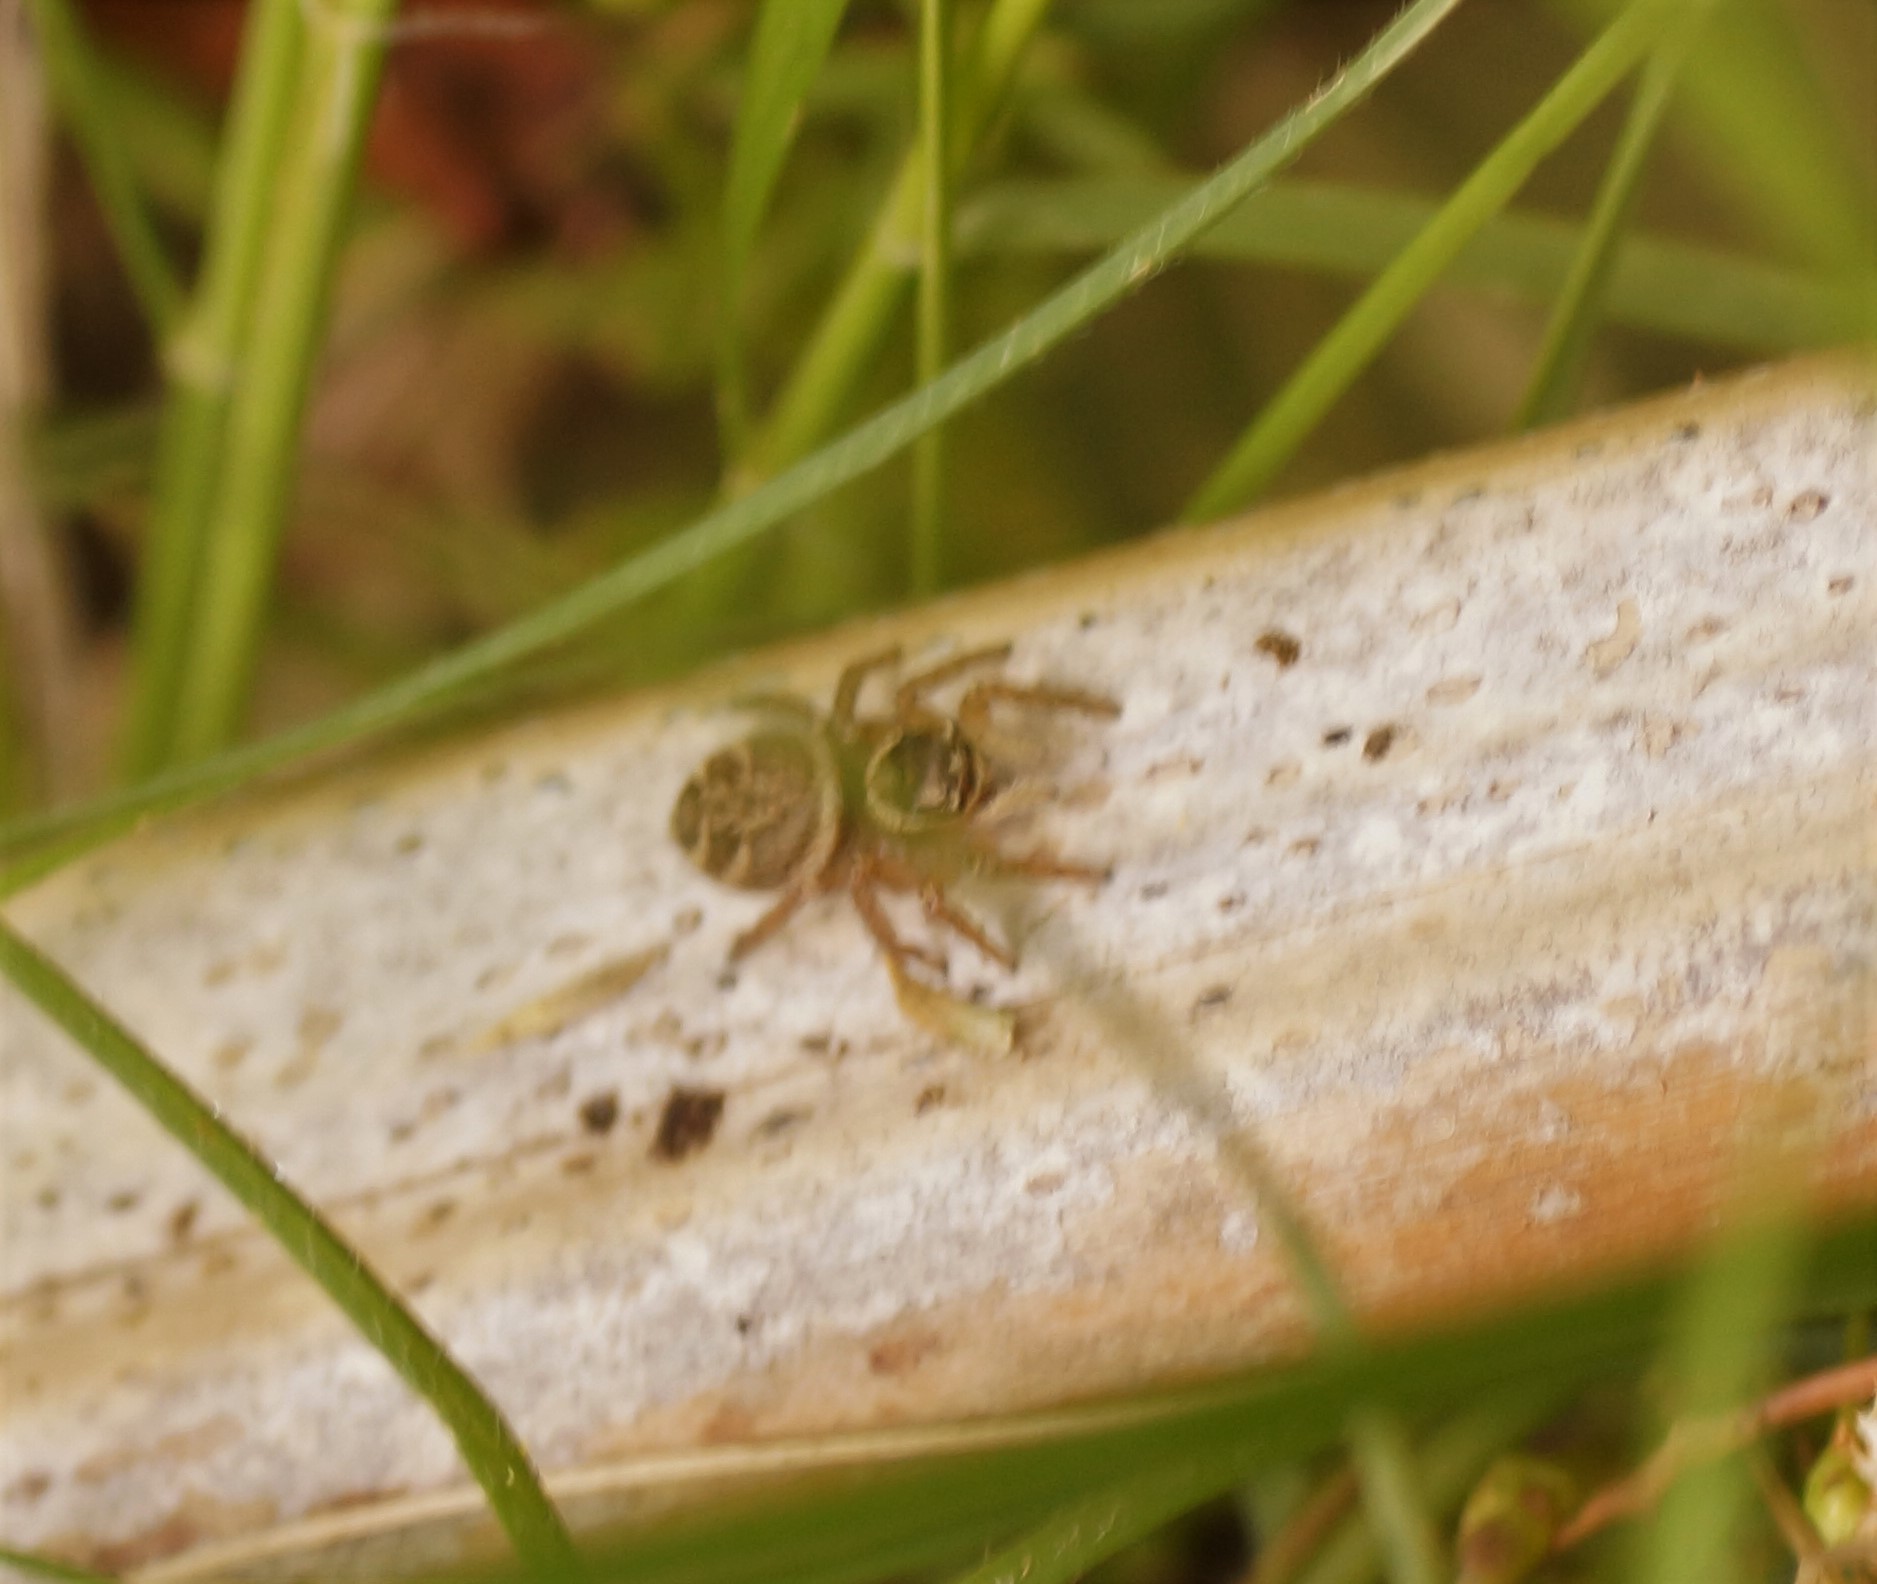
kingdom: Animalia
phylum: Arthropoda
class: Arachnida
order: Araneae
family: Salticidae
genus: Maratus
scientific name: Maratus griseus
